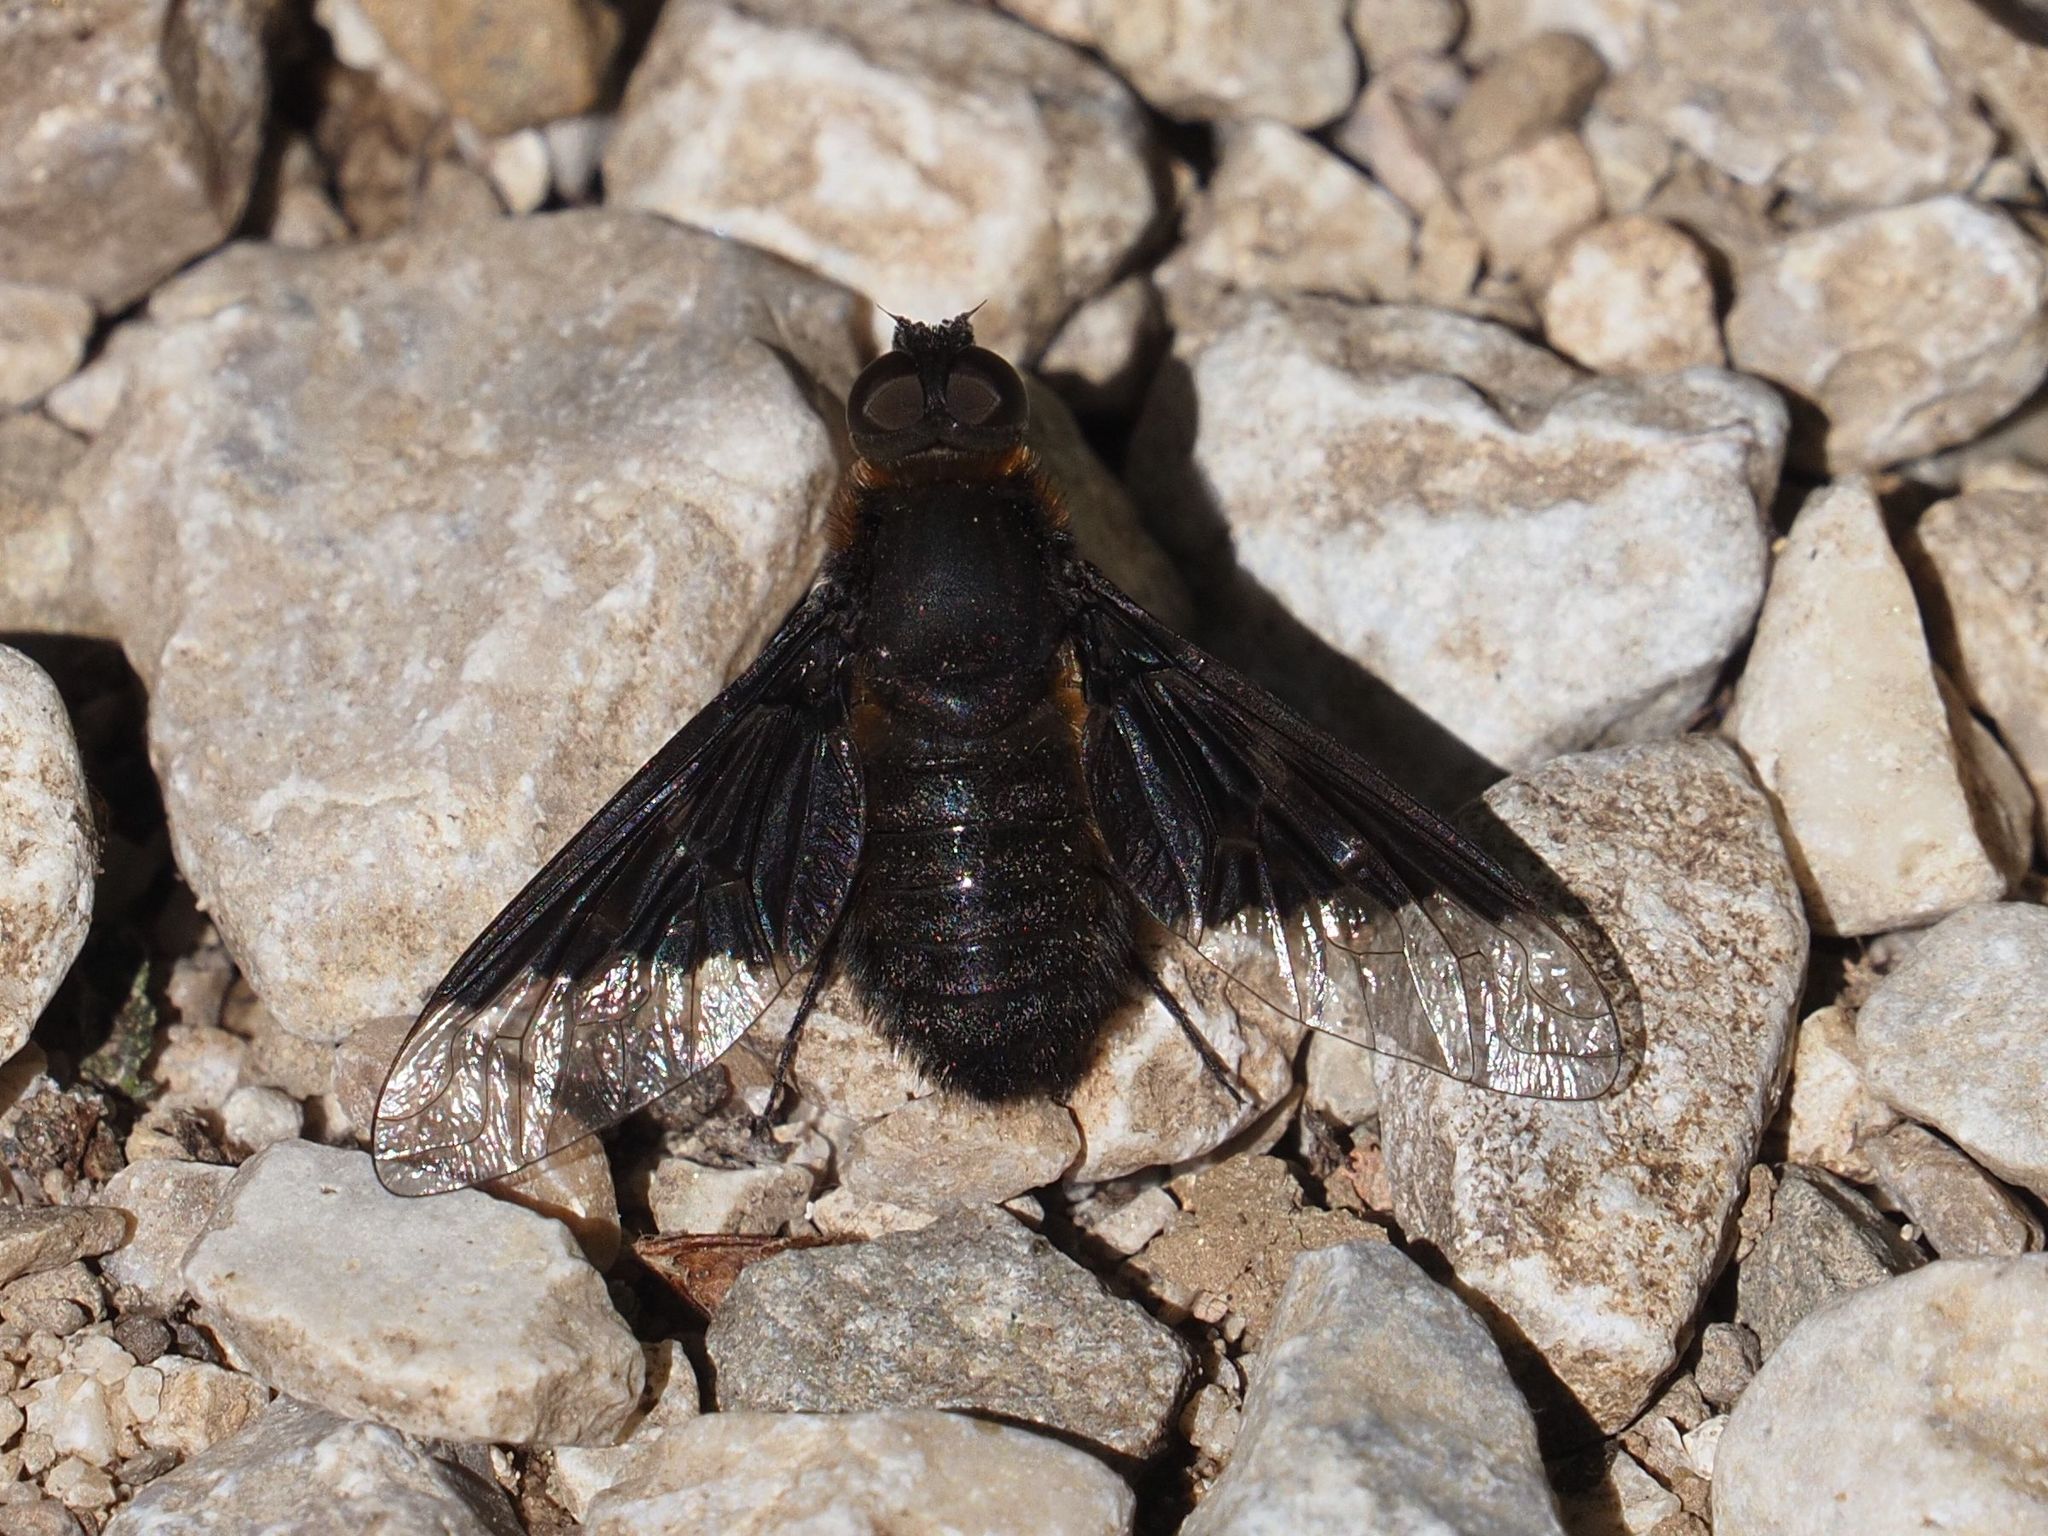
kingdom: Animalia
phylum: Arthropoda
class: Insecta
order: Diptera
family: Bombyliidae
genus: Hemipenthes
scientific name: Hemipenthes morio
